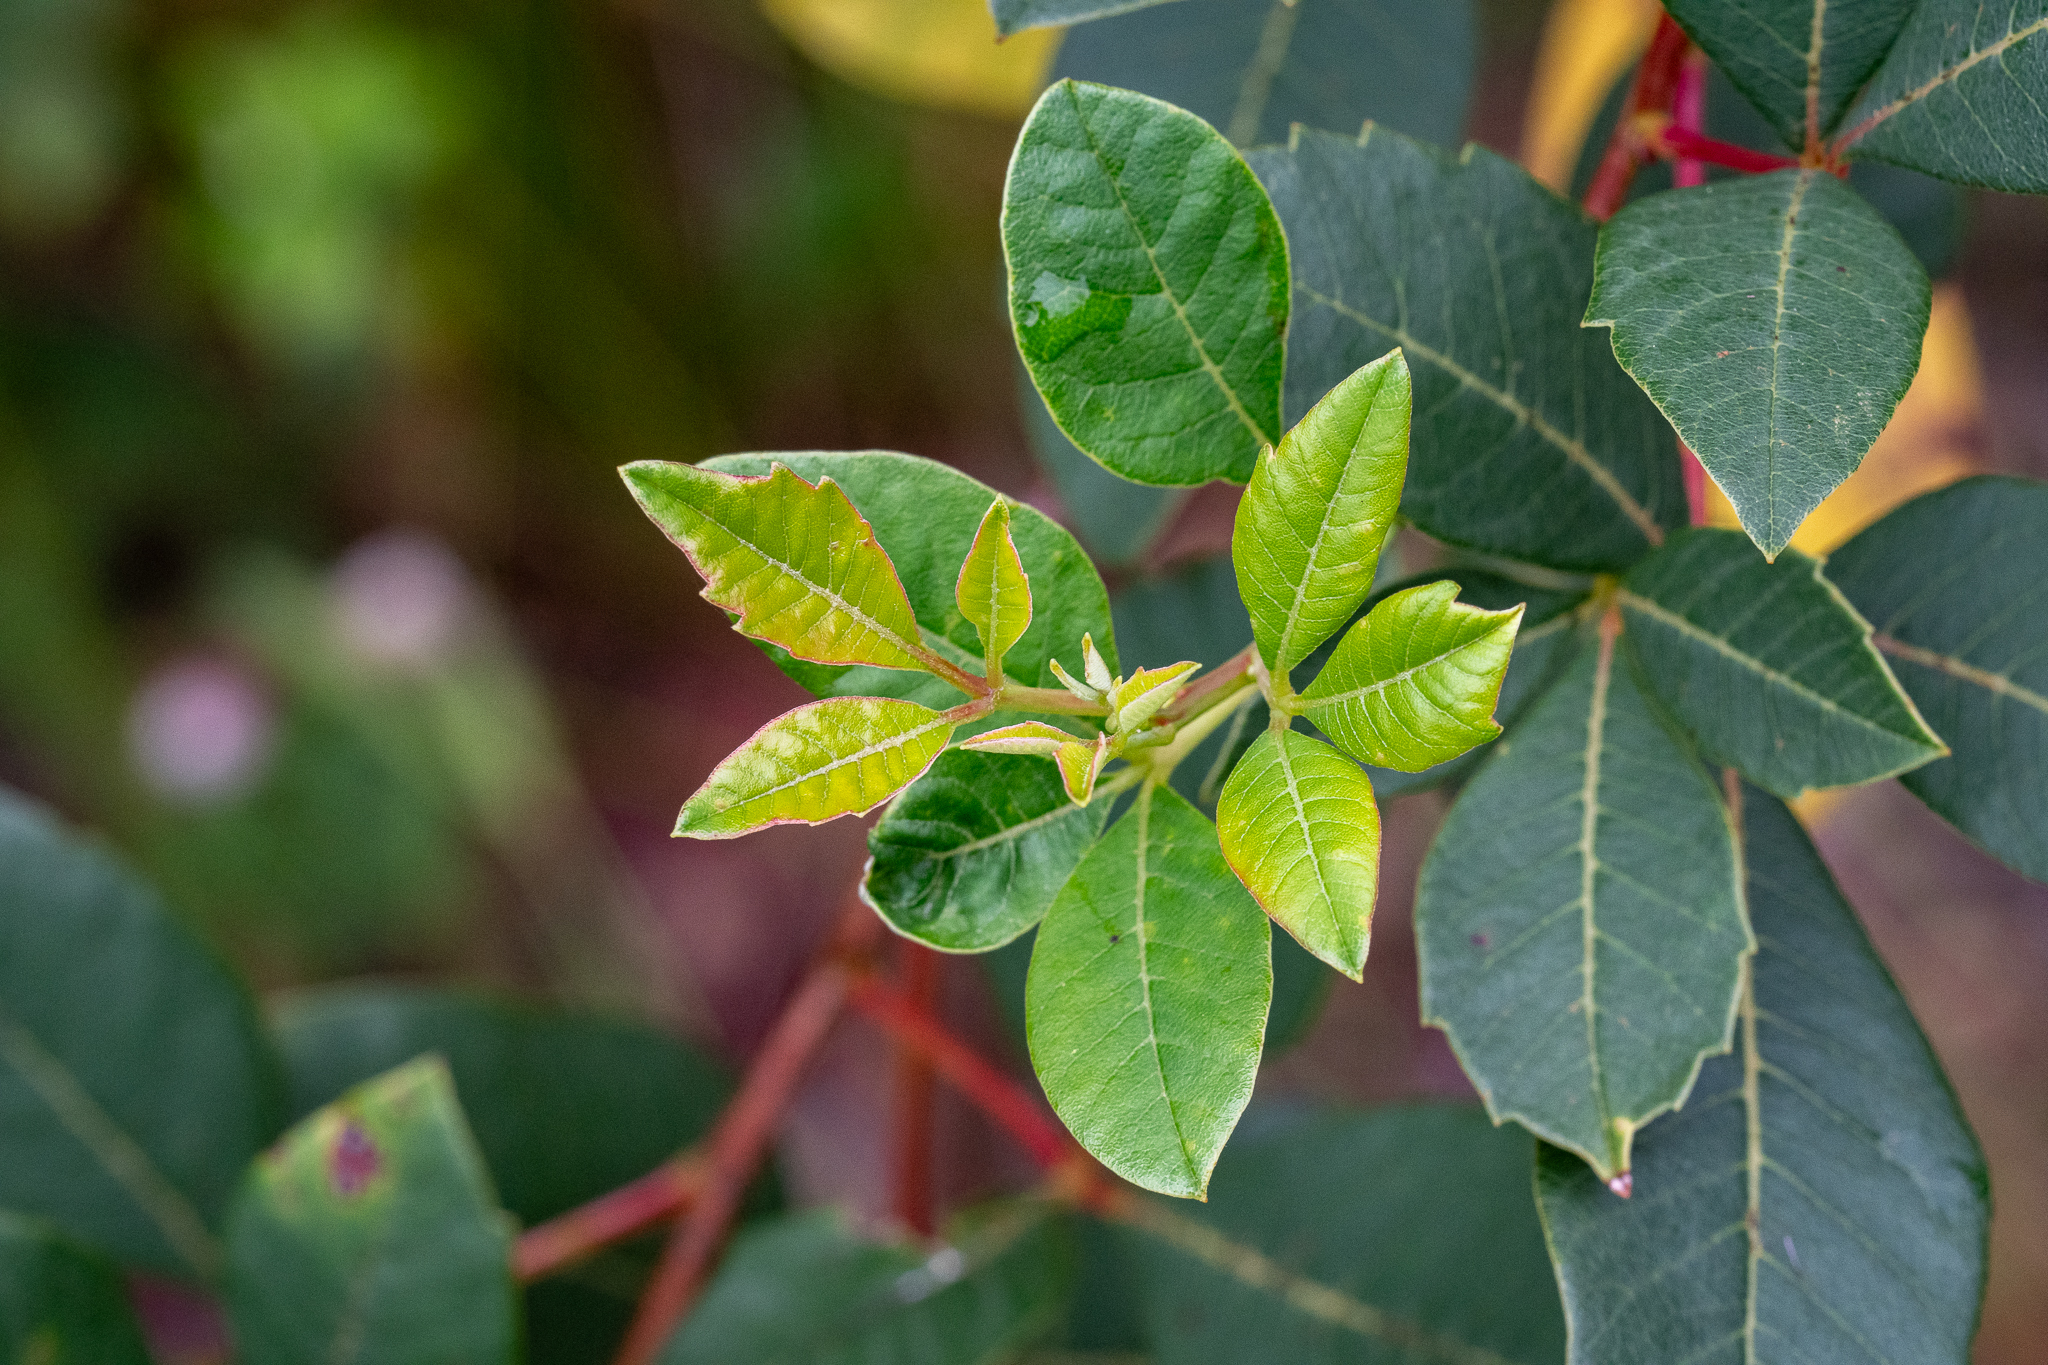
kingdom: Plantae
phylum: Tracheophyta
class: Magnoliopsida
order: Sapindales
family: Anacardiaceae
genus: Searsia
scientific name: Searsia tomentosa
